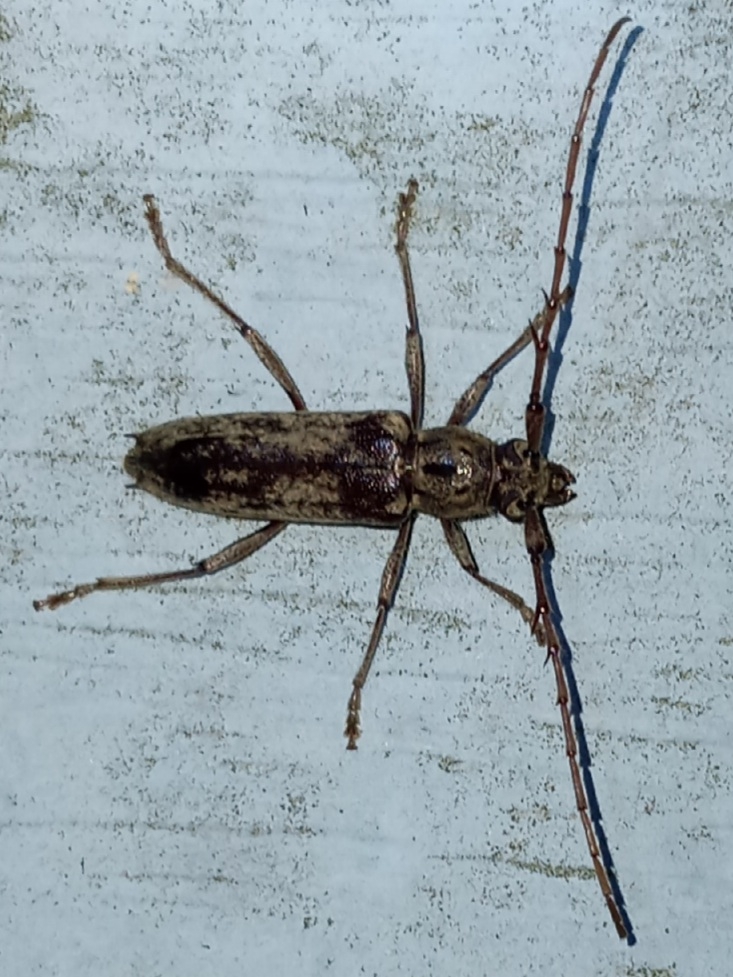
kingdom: Animalia
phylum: Arthropoda
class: Insecta
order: Coleoptera
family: Cerambycidae
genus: Elaphidion
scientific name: Elaphidion mucronatum
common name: Spined oak borer
